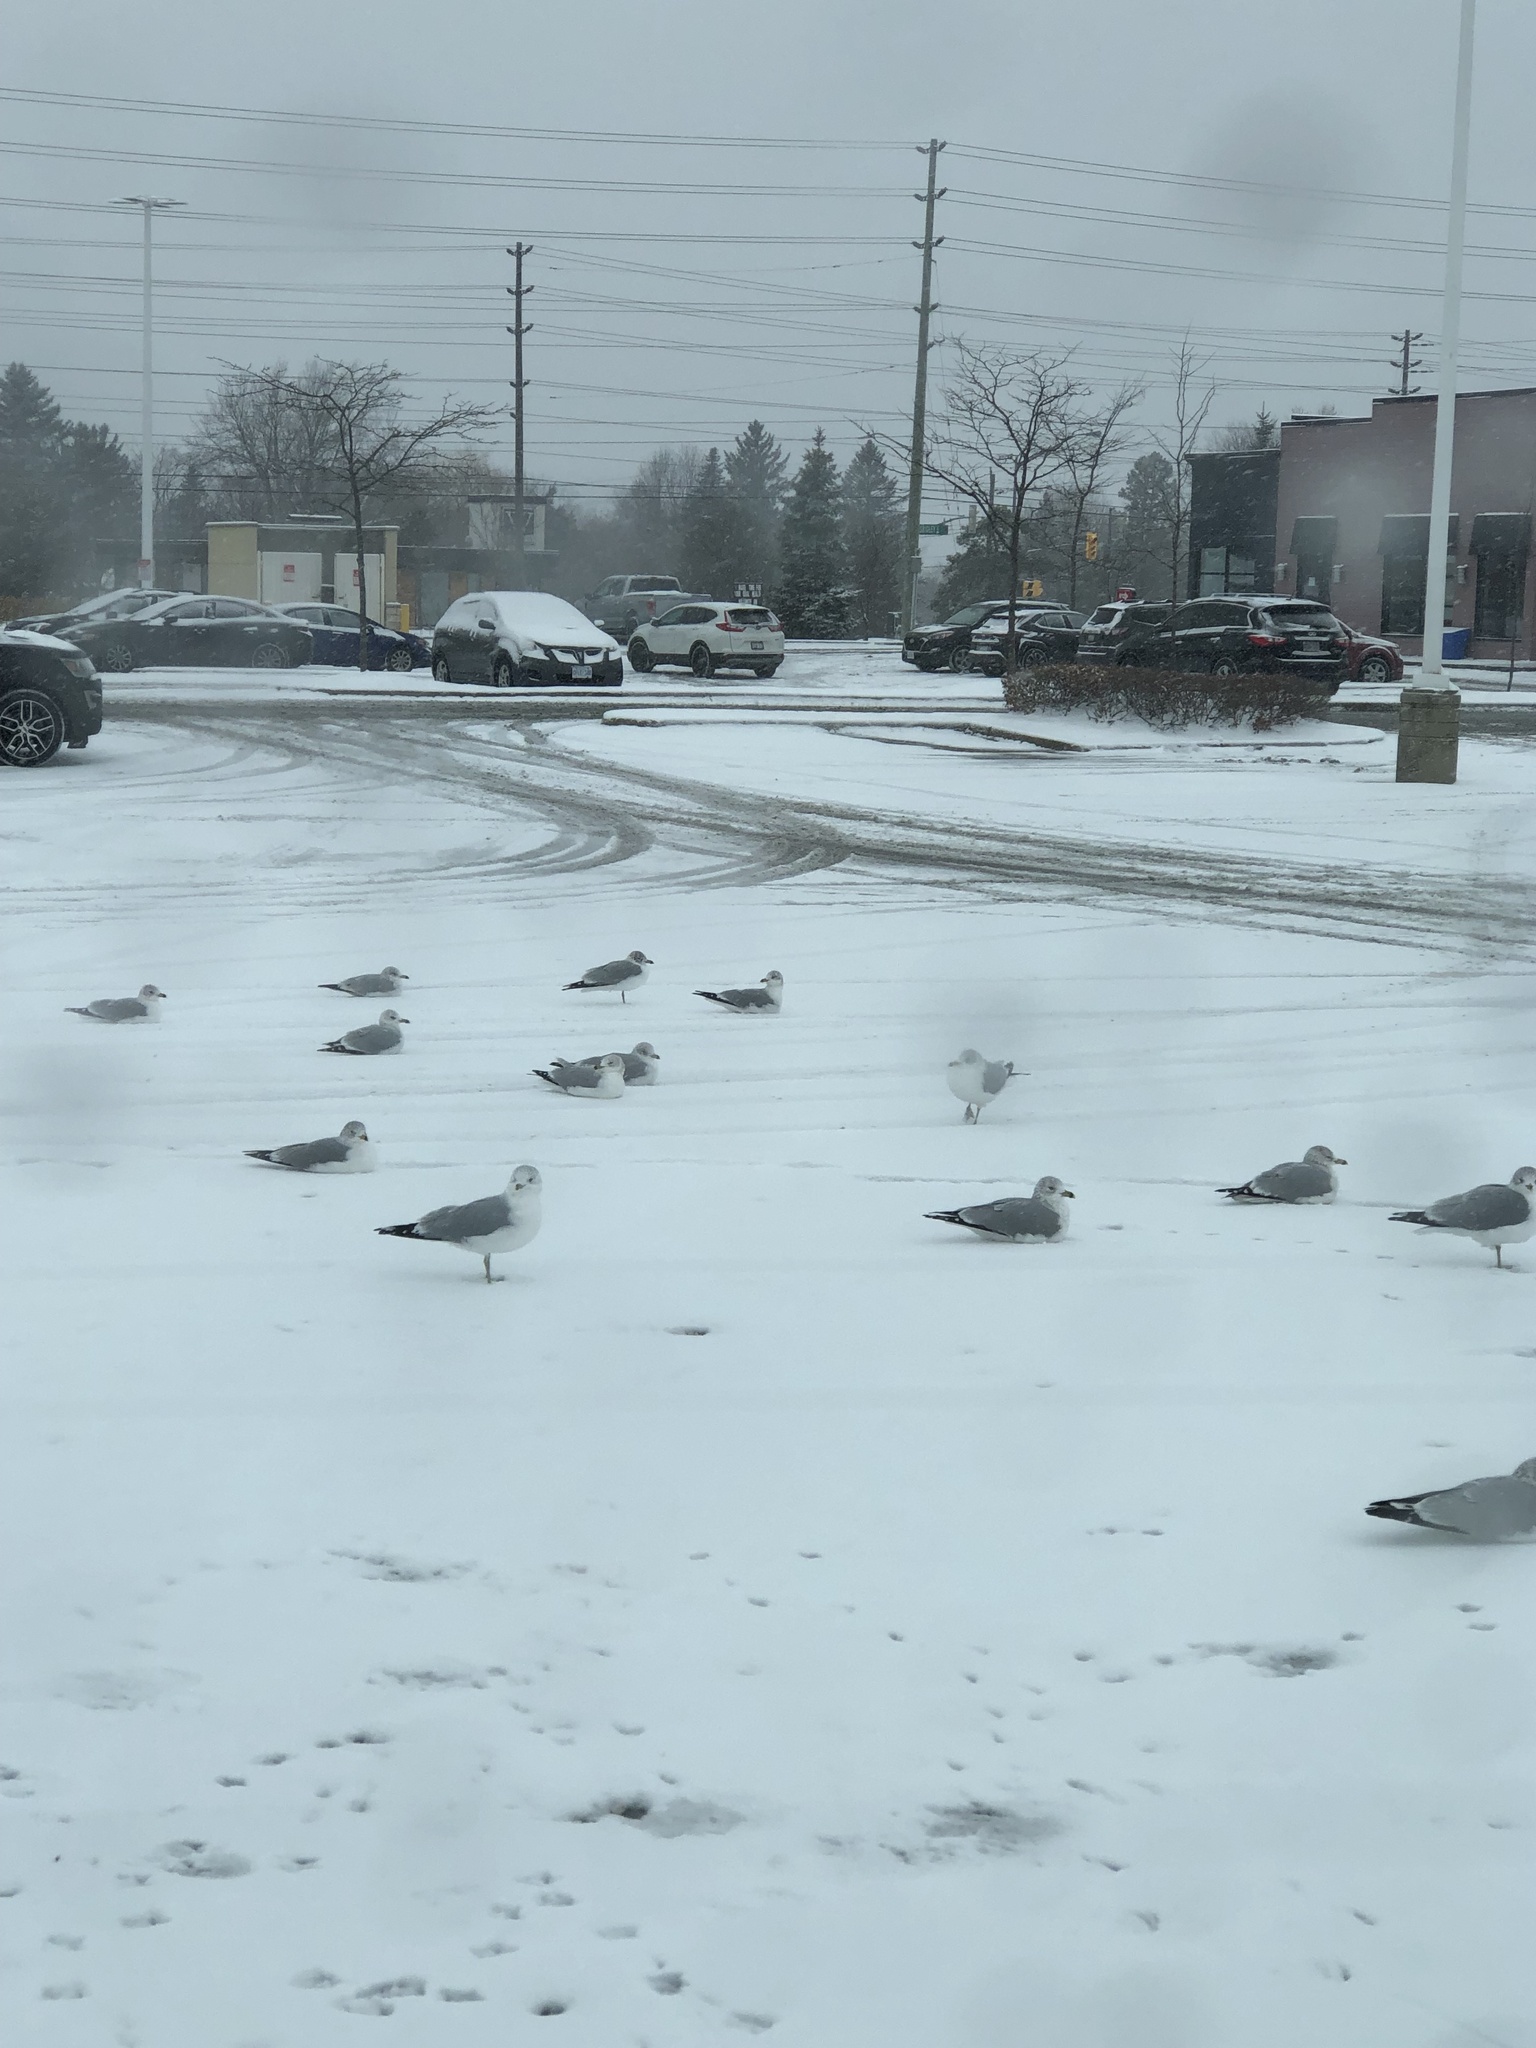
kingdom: Animalia
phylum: Chordata
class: Aves
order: Charadriiformes
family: Laridae
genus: Larus
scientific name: Larus delawarensis
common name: Ring-billed gull
